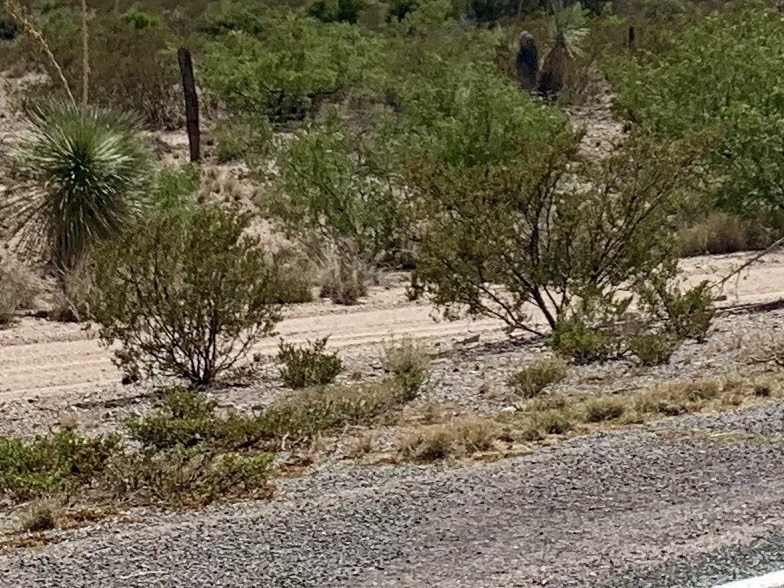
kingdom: Plantae
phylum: Tracheophyta
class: Magnoliopsida
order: Zygophyllales
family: Zygophyllaceae
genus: Larrea
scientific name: Larrea tridentata
